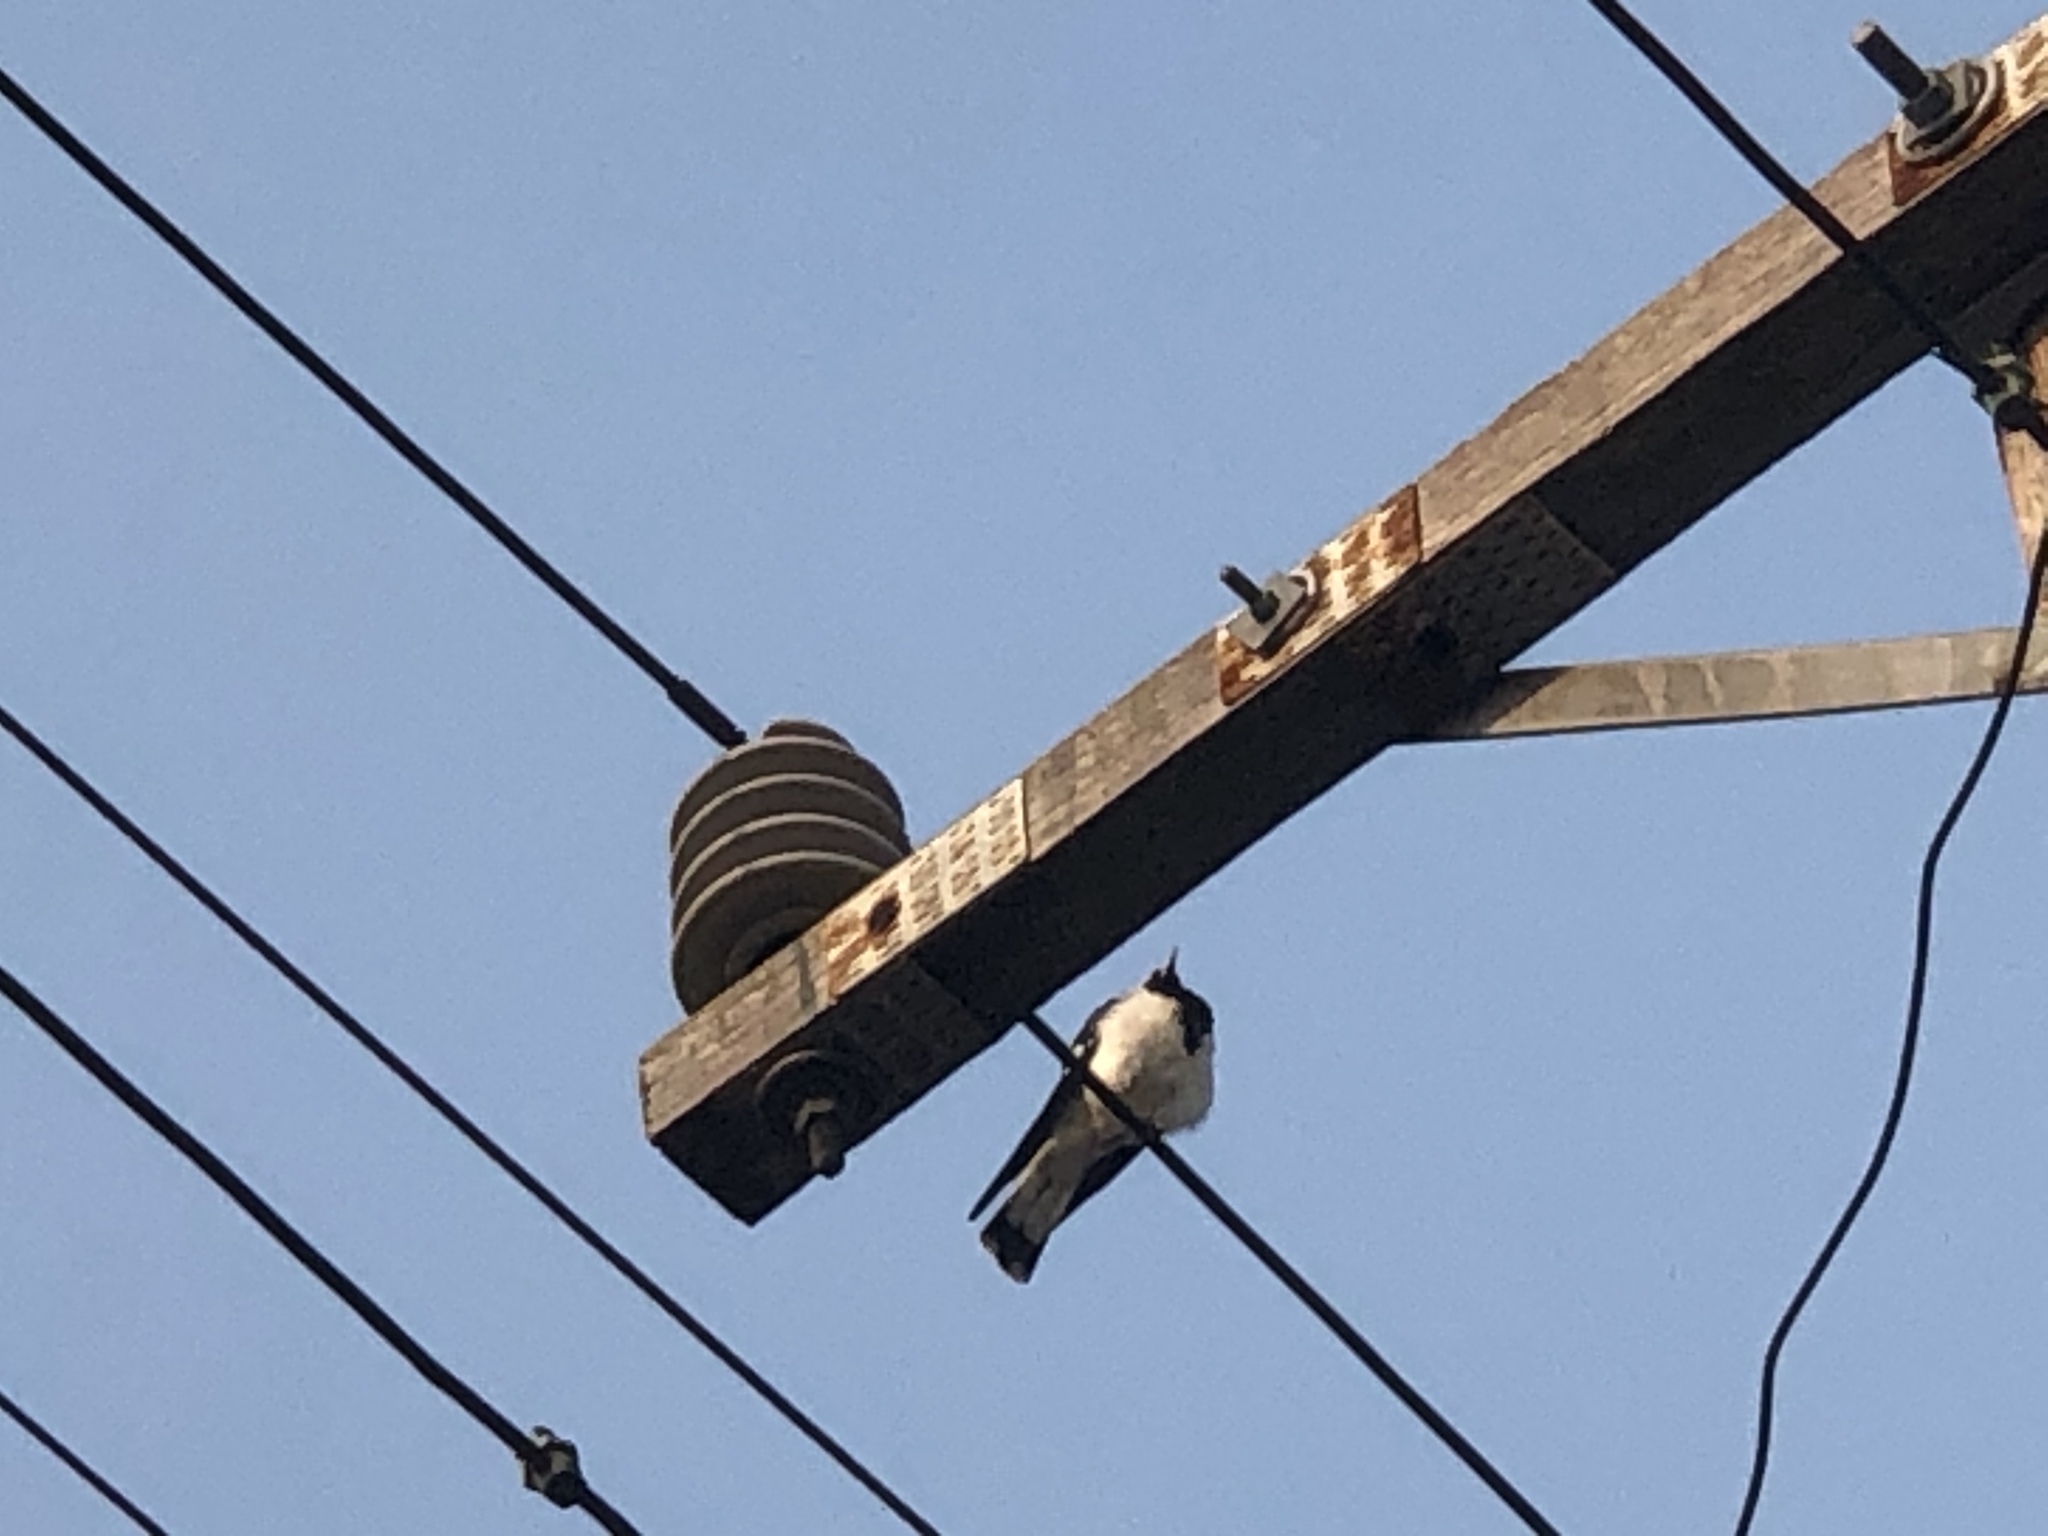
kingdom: Animalia
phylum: Chordata
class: Aves
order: Passeriformes
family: Monarchidae
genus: Grallina
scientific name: Grallina cyanoleuca
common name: Magpie-lark
